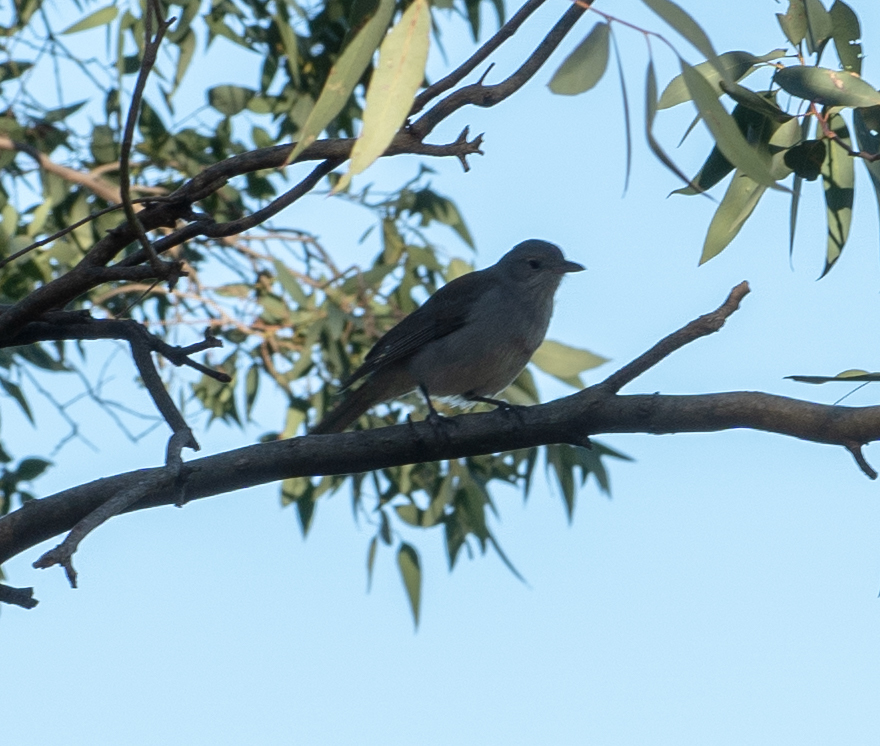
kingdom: Animalia
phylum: Chordata
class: Aves
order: Passeriformes
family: Pachycephalidae
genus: Colluricincla
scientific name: Colluricincla harmonica
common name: Grey shrikethrush
